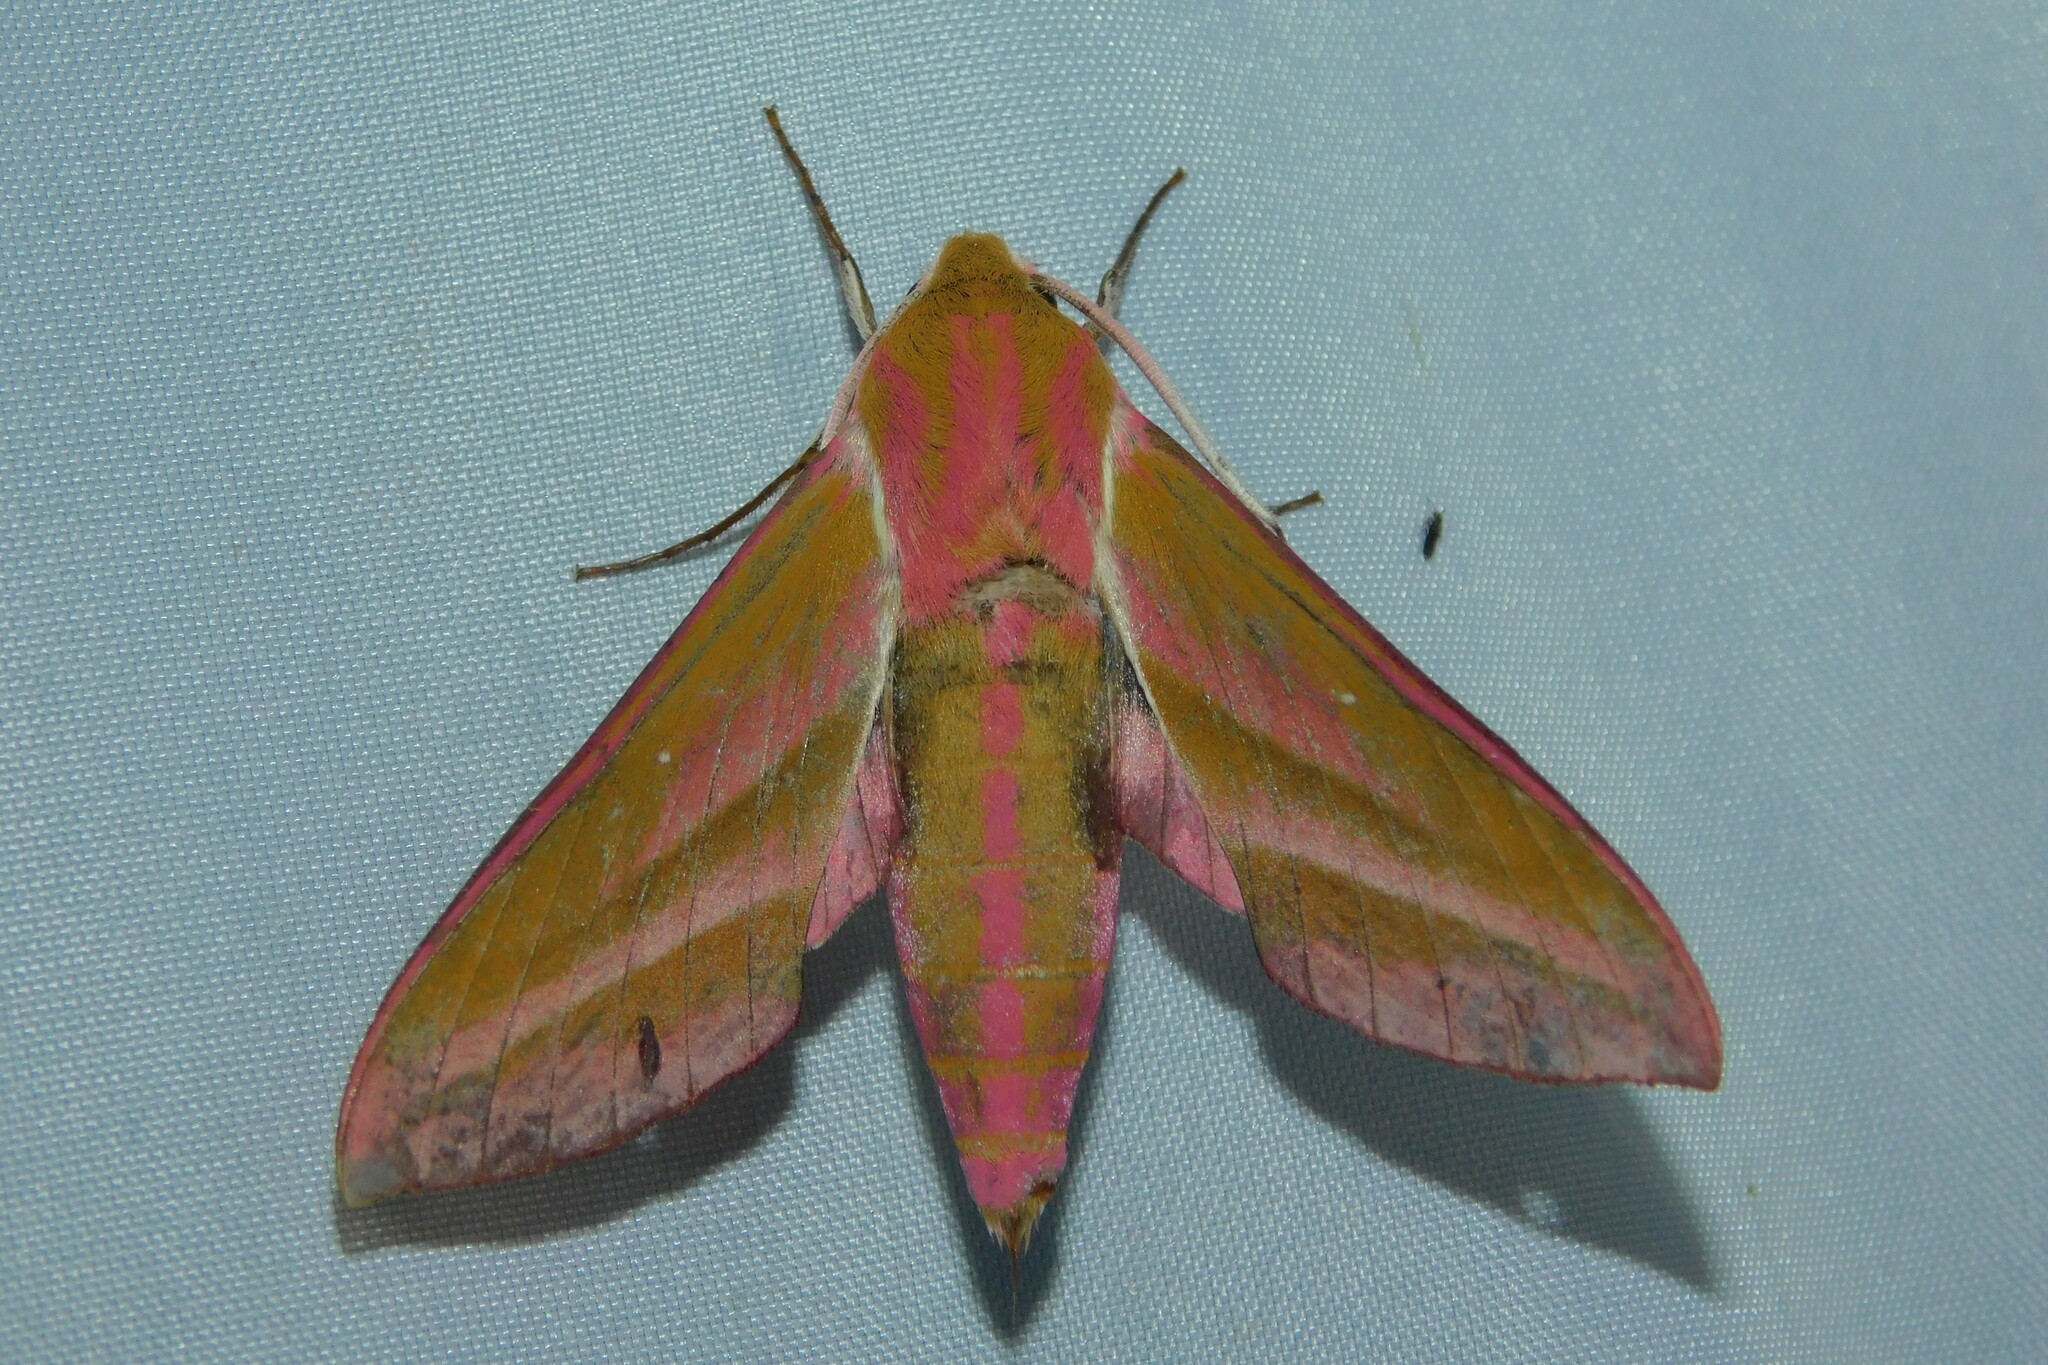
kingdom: Animalia
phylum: Arthropoda
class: Insecta
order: Lepidoptera
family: Sphingidae
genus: Deilephila
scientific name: Deilephila elpenor
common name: Elephant hawk-moth
